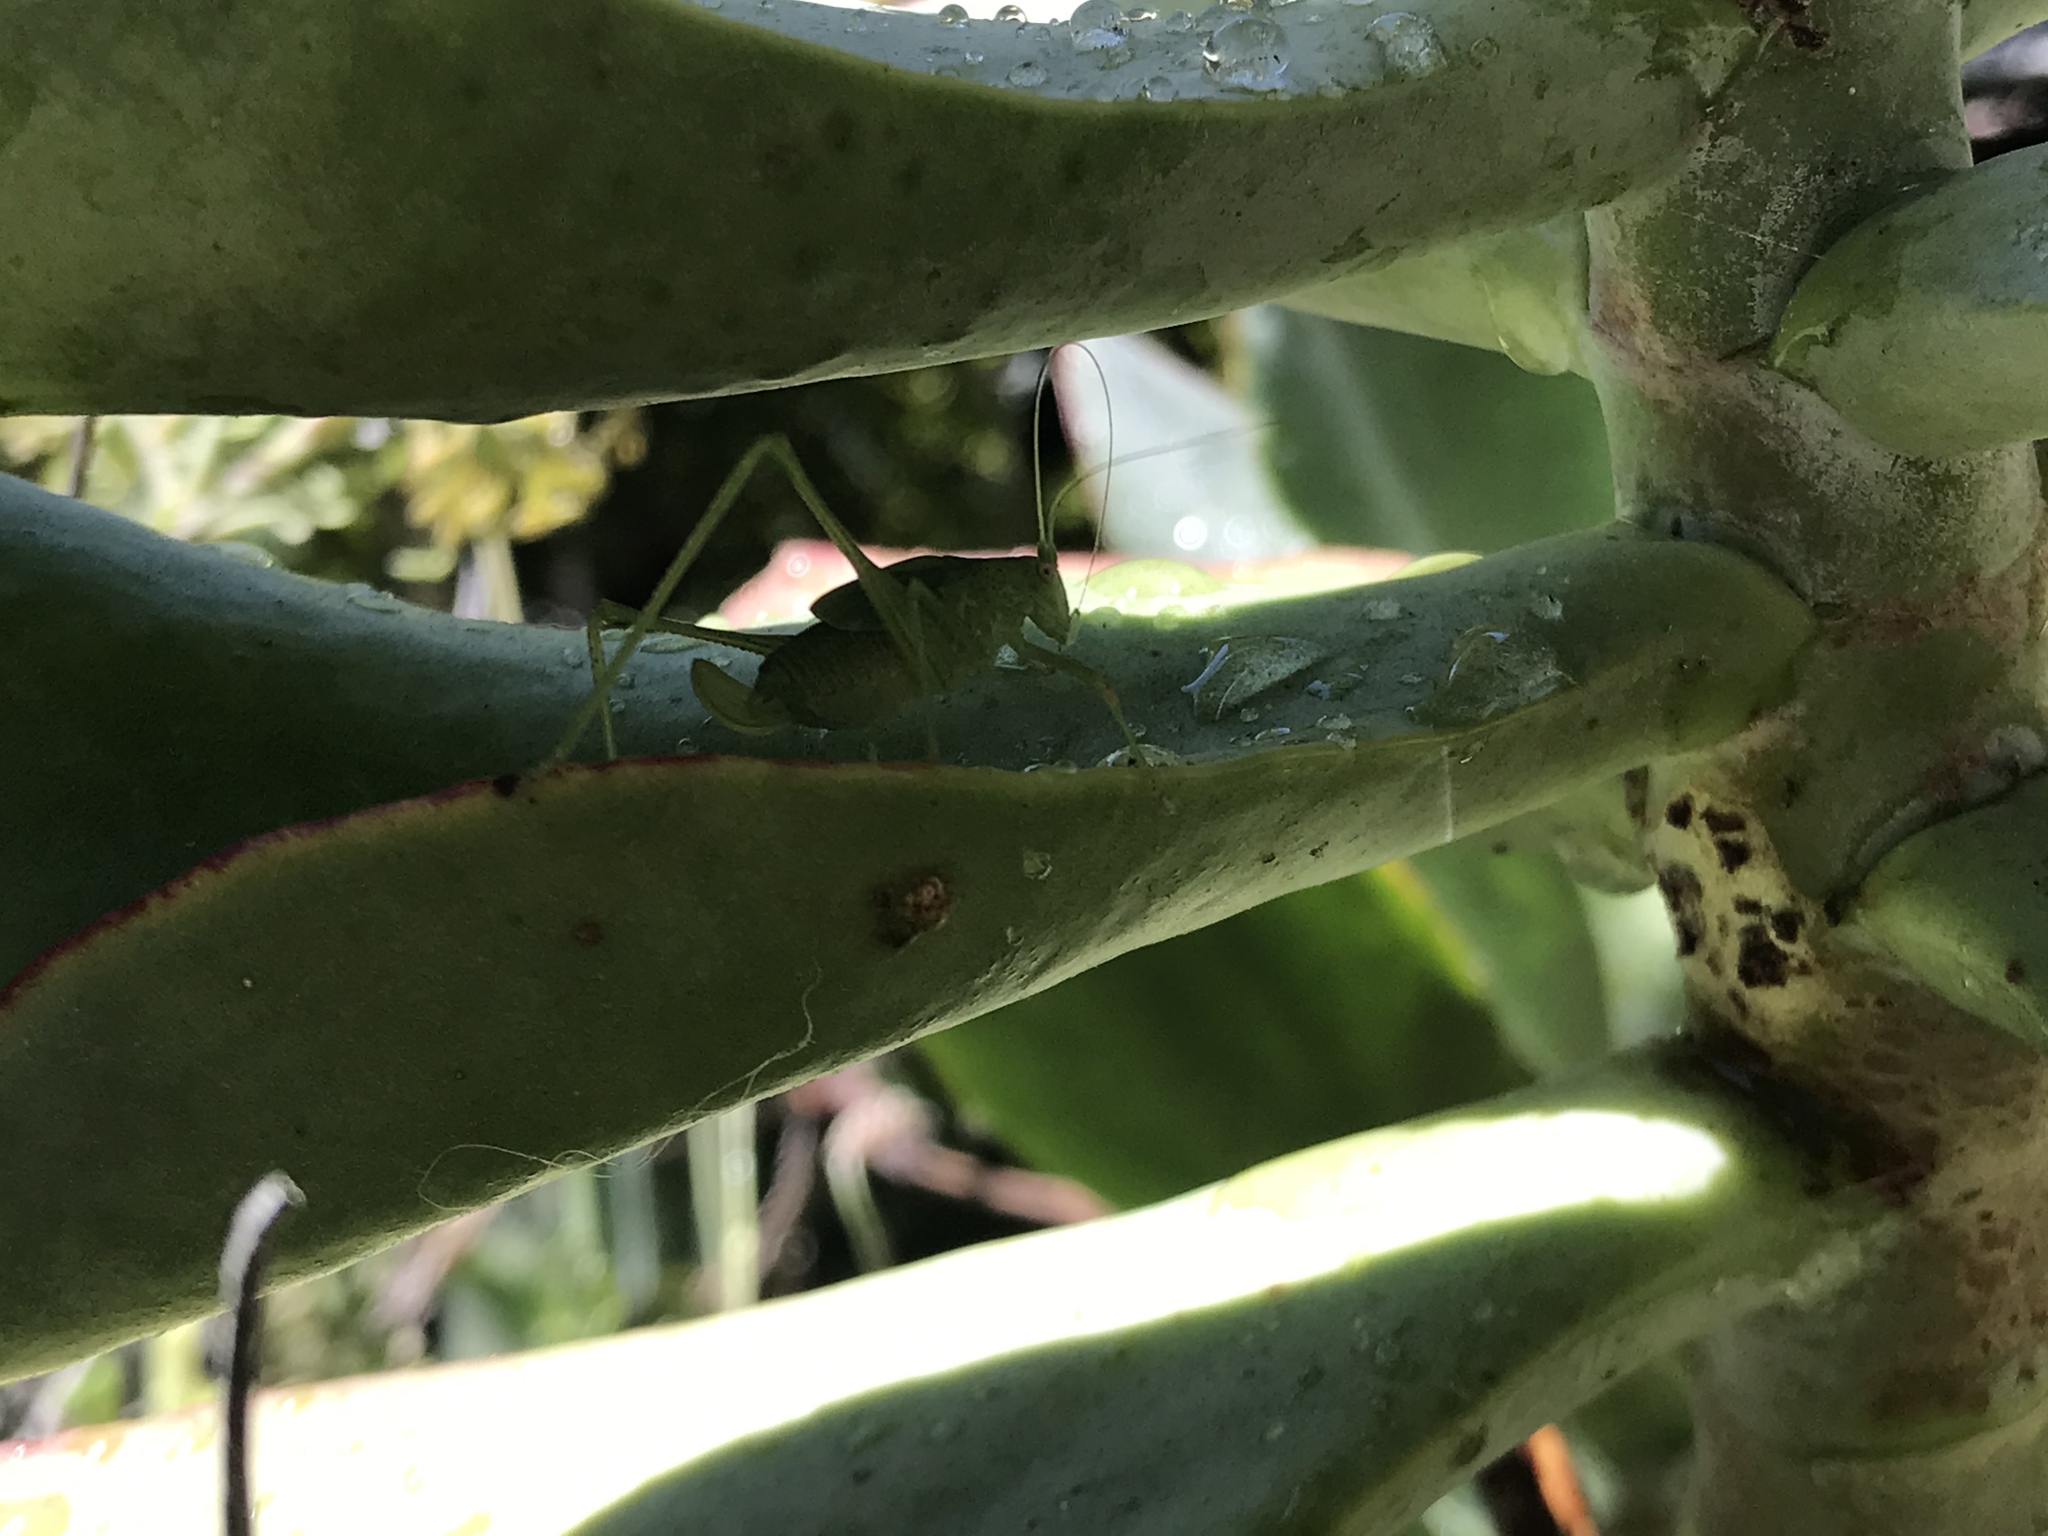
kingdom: Animalia
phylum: Arthropoda
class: Insecta
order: Orthoptera
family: Tettigoniidae
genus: Phaneroptera
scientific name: Phaneroptera nana
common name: Southern sickle bush-cricket
